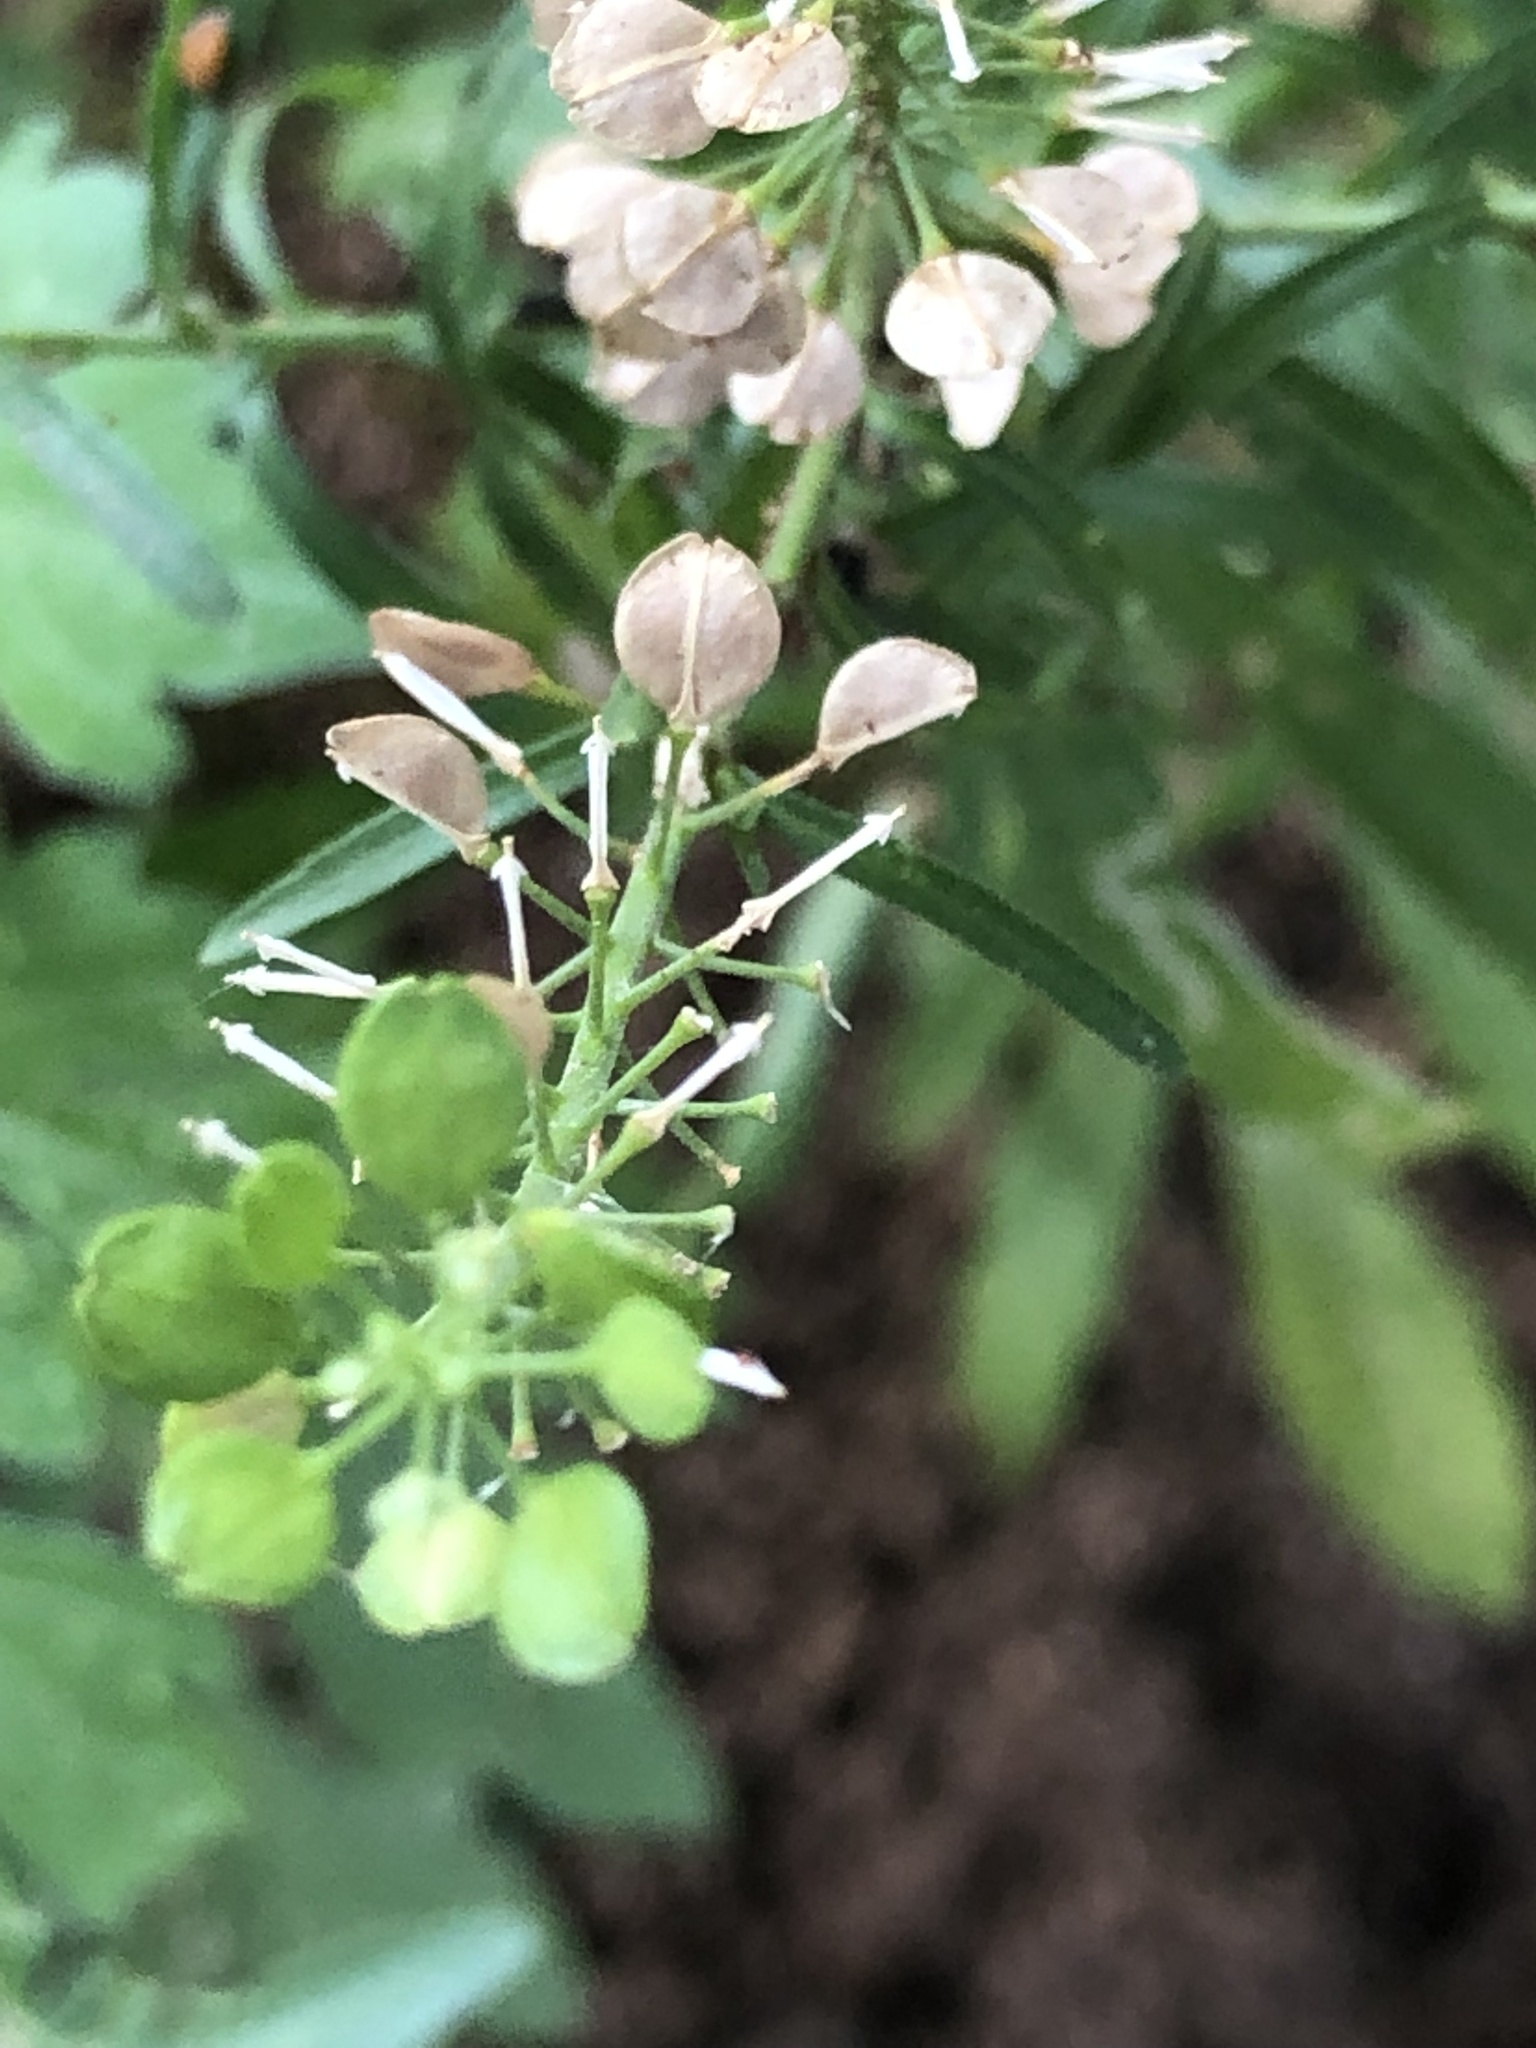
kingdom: Plantae
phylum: Tracheophyta
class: Magnoliopsida
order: Brassicales
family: Brassicaceae
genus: Lepidium
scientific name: Lepidium virginicum
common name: Least pepperwort
